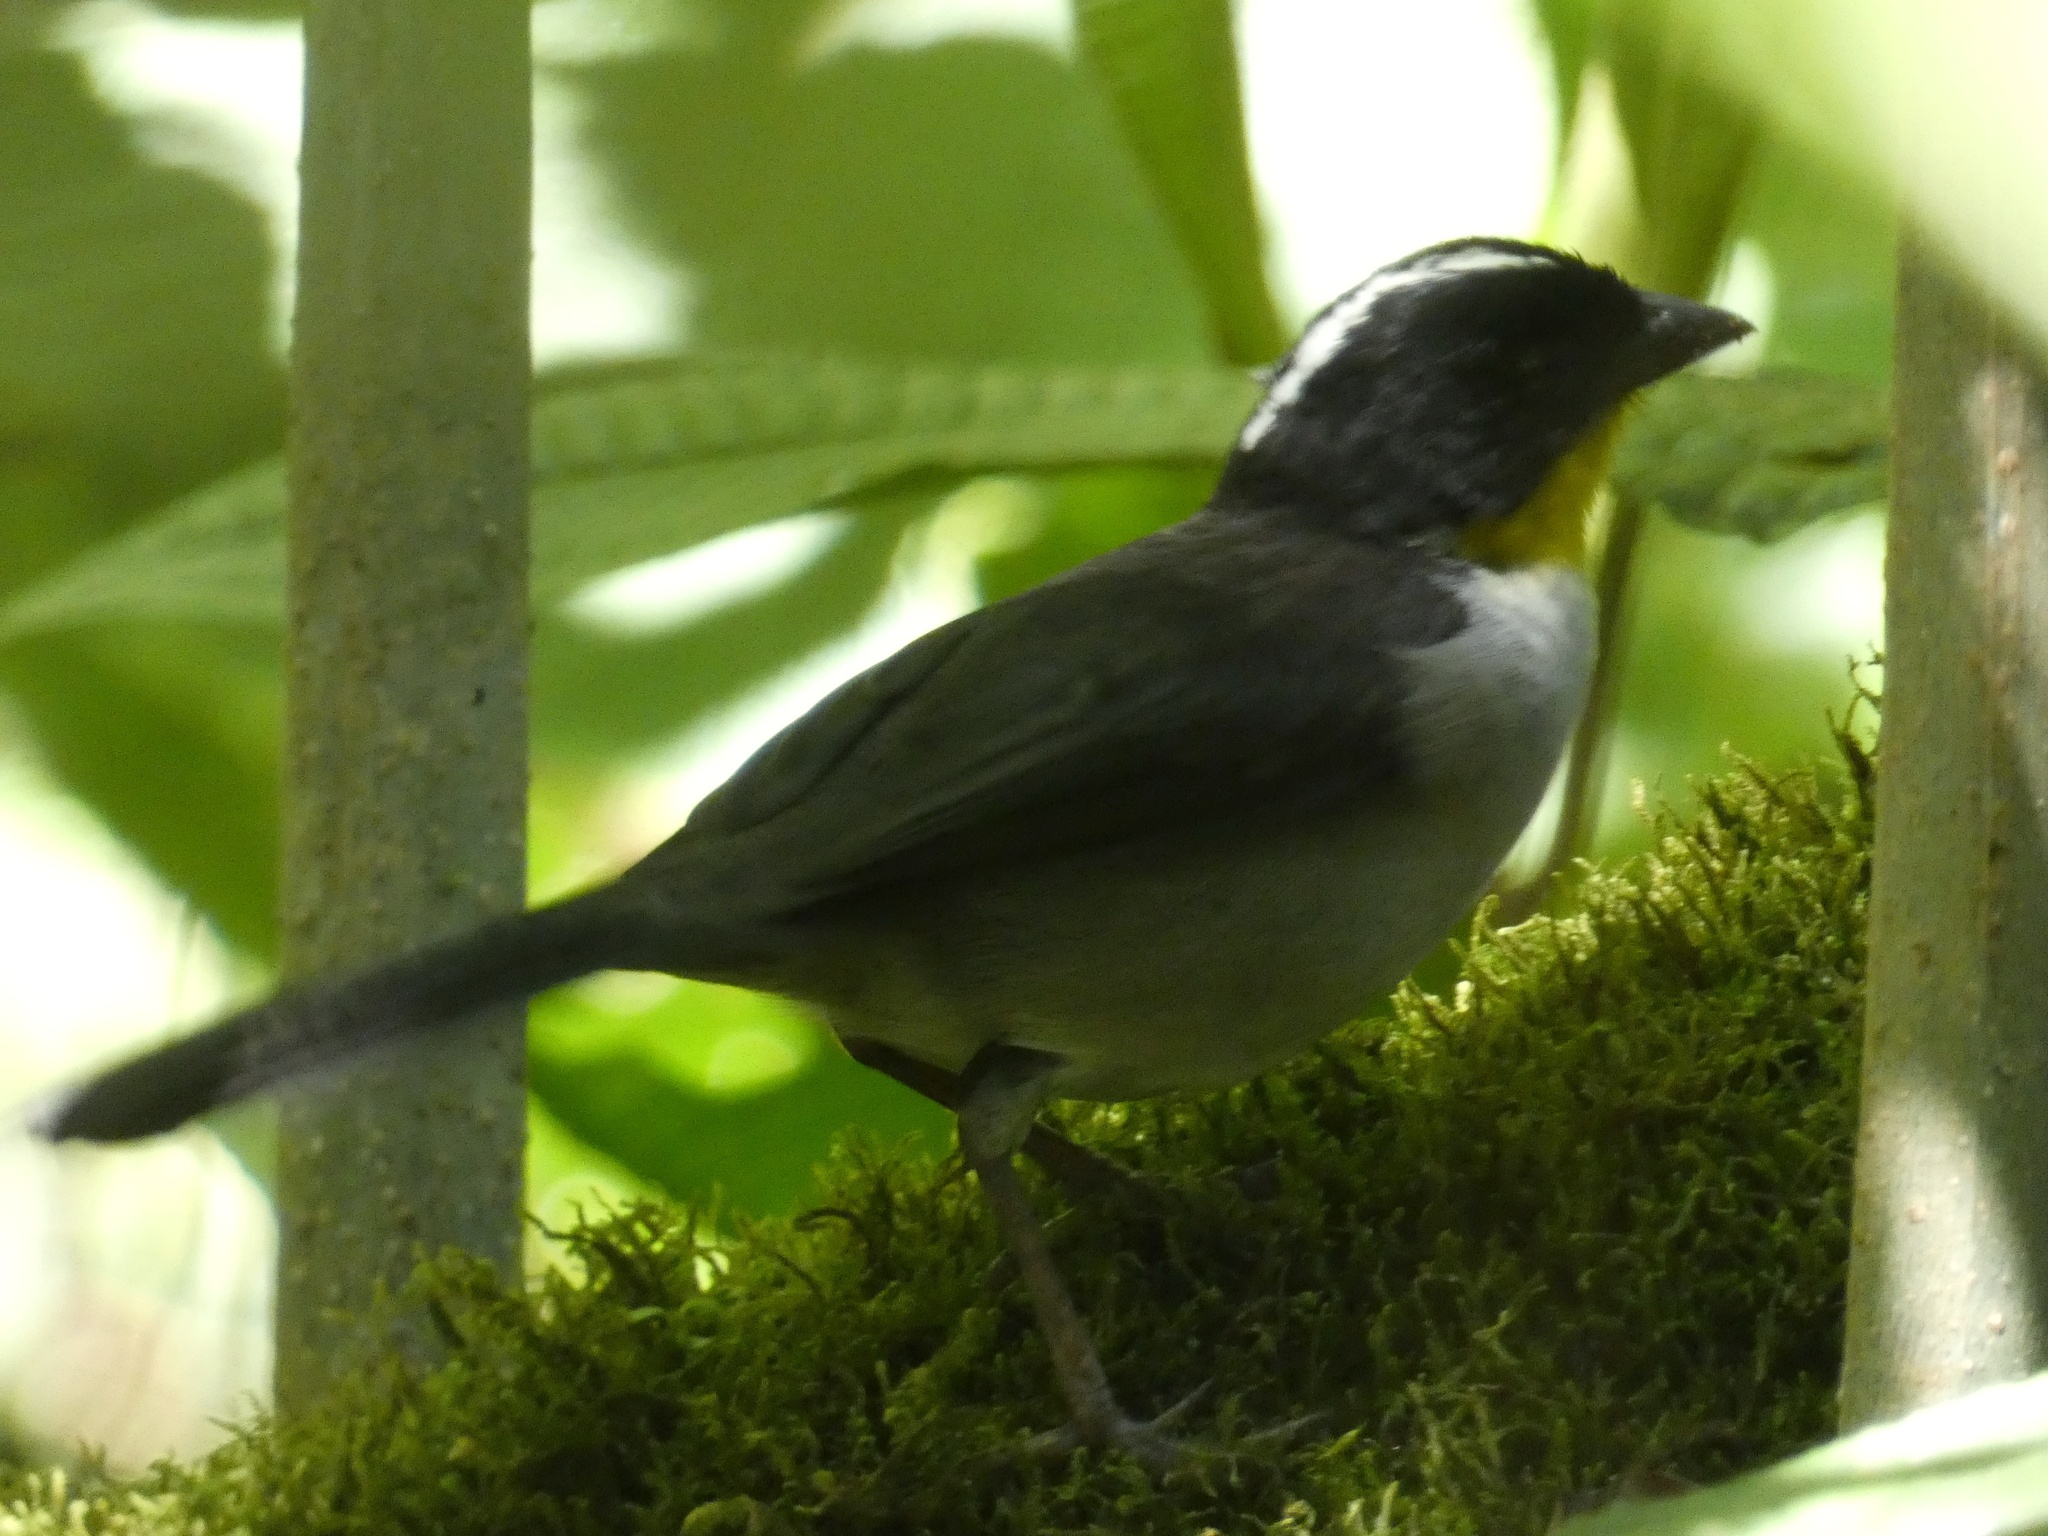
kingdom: Animalia
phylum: Chordata
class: Aves
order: Passeriformes
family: Passerellidae
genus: Atlapetes
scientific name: Atlapetes albinucha
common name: White-naped brush-finch
